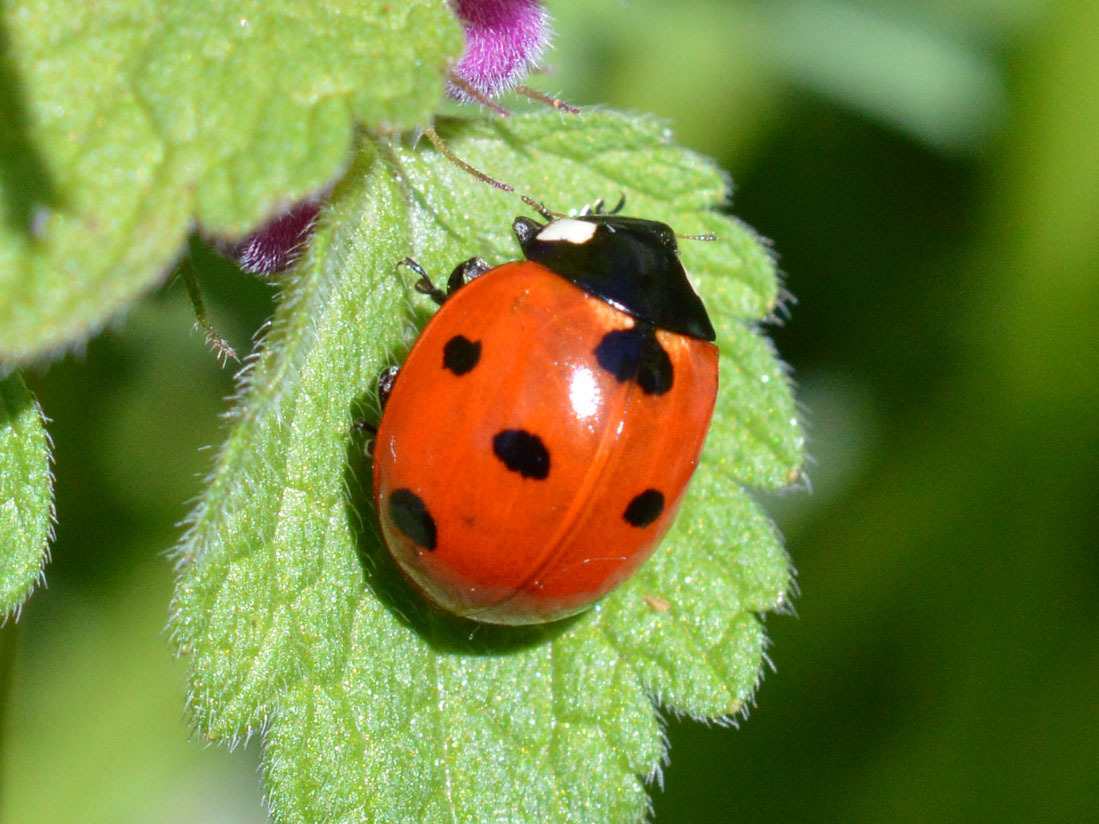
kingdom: Animalia
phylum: Arthropoda
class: Insecta
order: Coleoptera
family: Coccinellidae
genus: Coccinella
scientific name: Coccinella septempunctata
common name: Sevenspotted lady beetle
